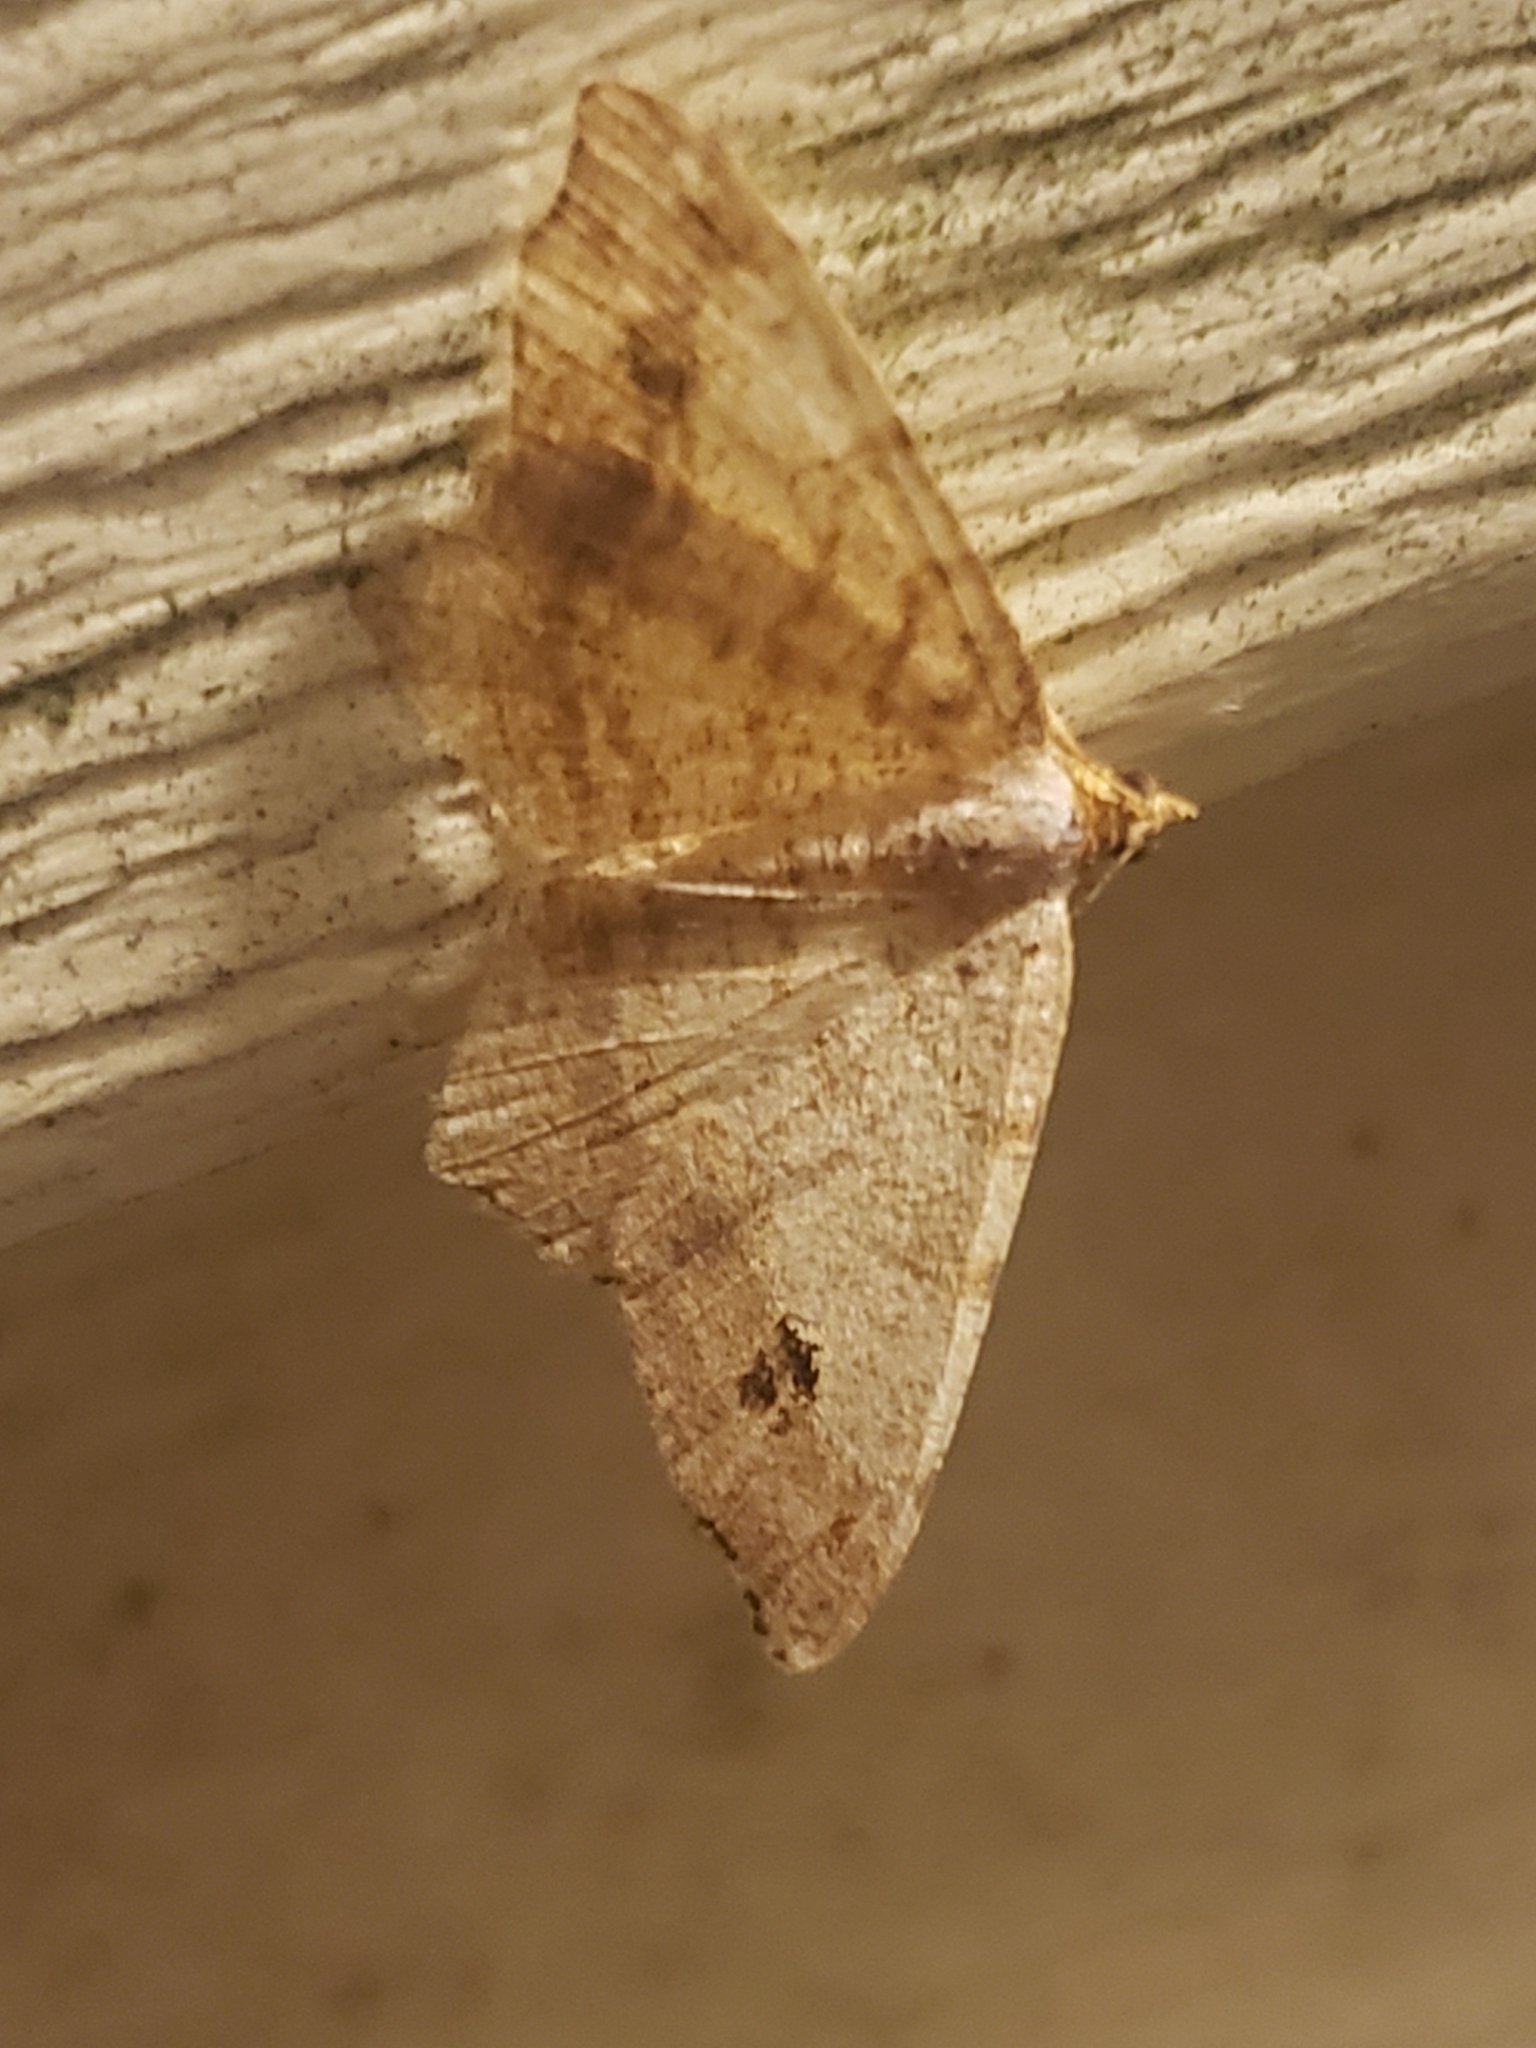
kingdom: Animalia
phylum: Arthropoda
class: Insecta
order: Lepidoptera
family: Geometridae
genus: Macaria
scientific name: Macaria aemulataria
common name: Common angle
